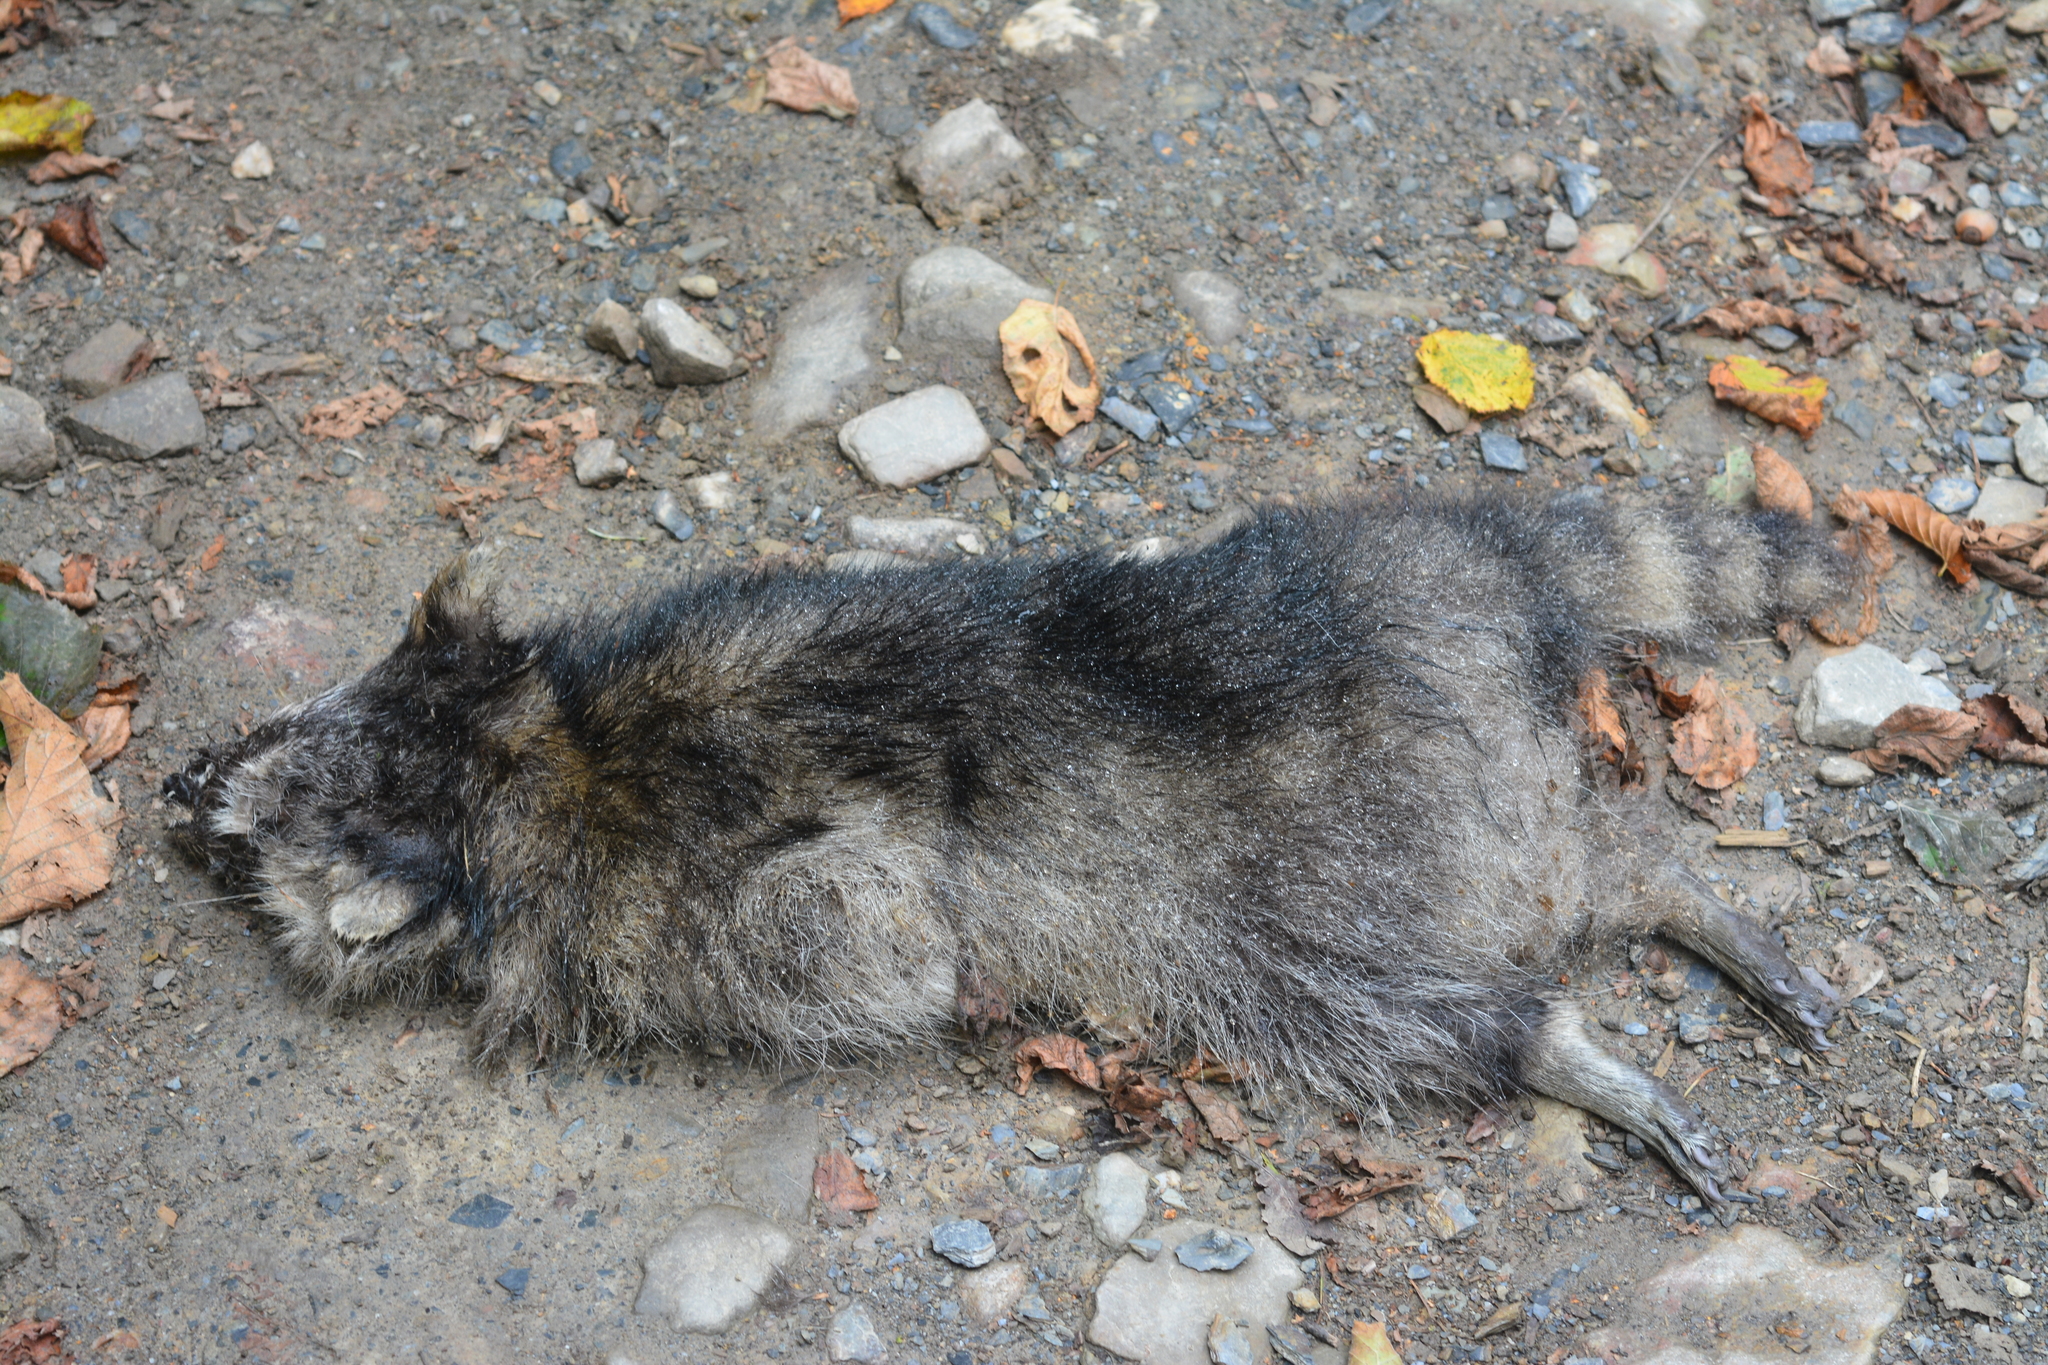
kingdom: Animalia
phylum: Chordata
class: Mammalia
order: Carnivora
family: Procyonidae
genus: Procyon
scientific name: Procyon lotor
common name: Raccoon
